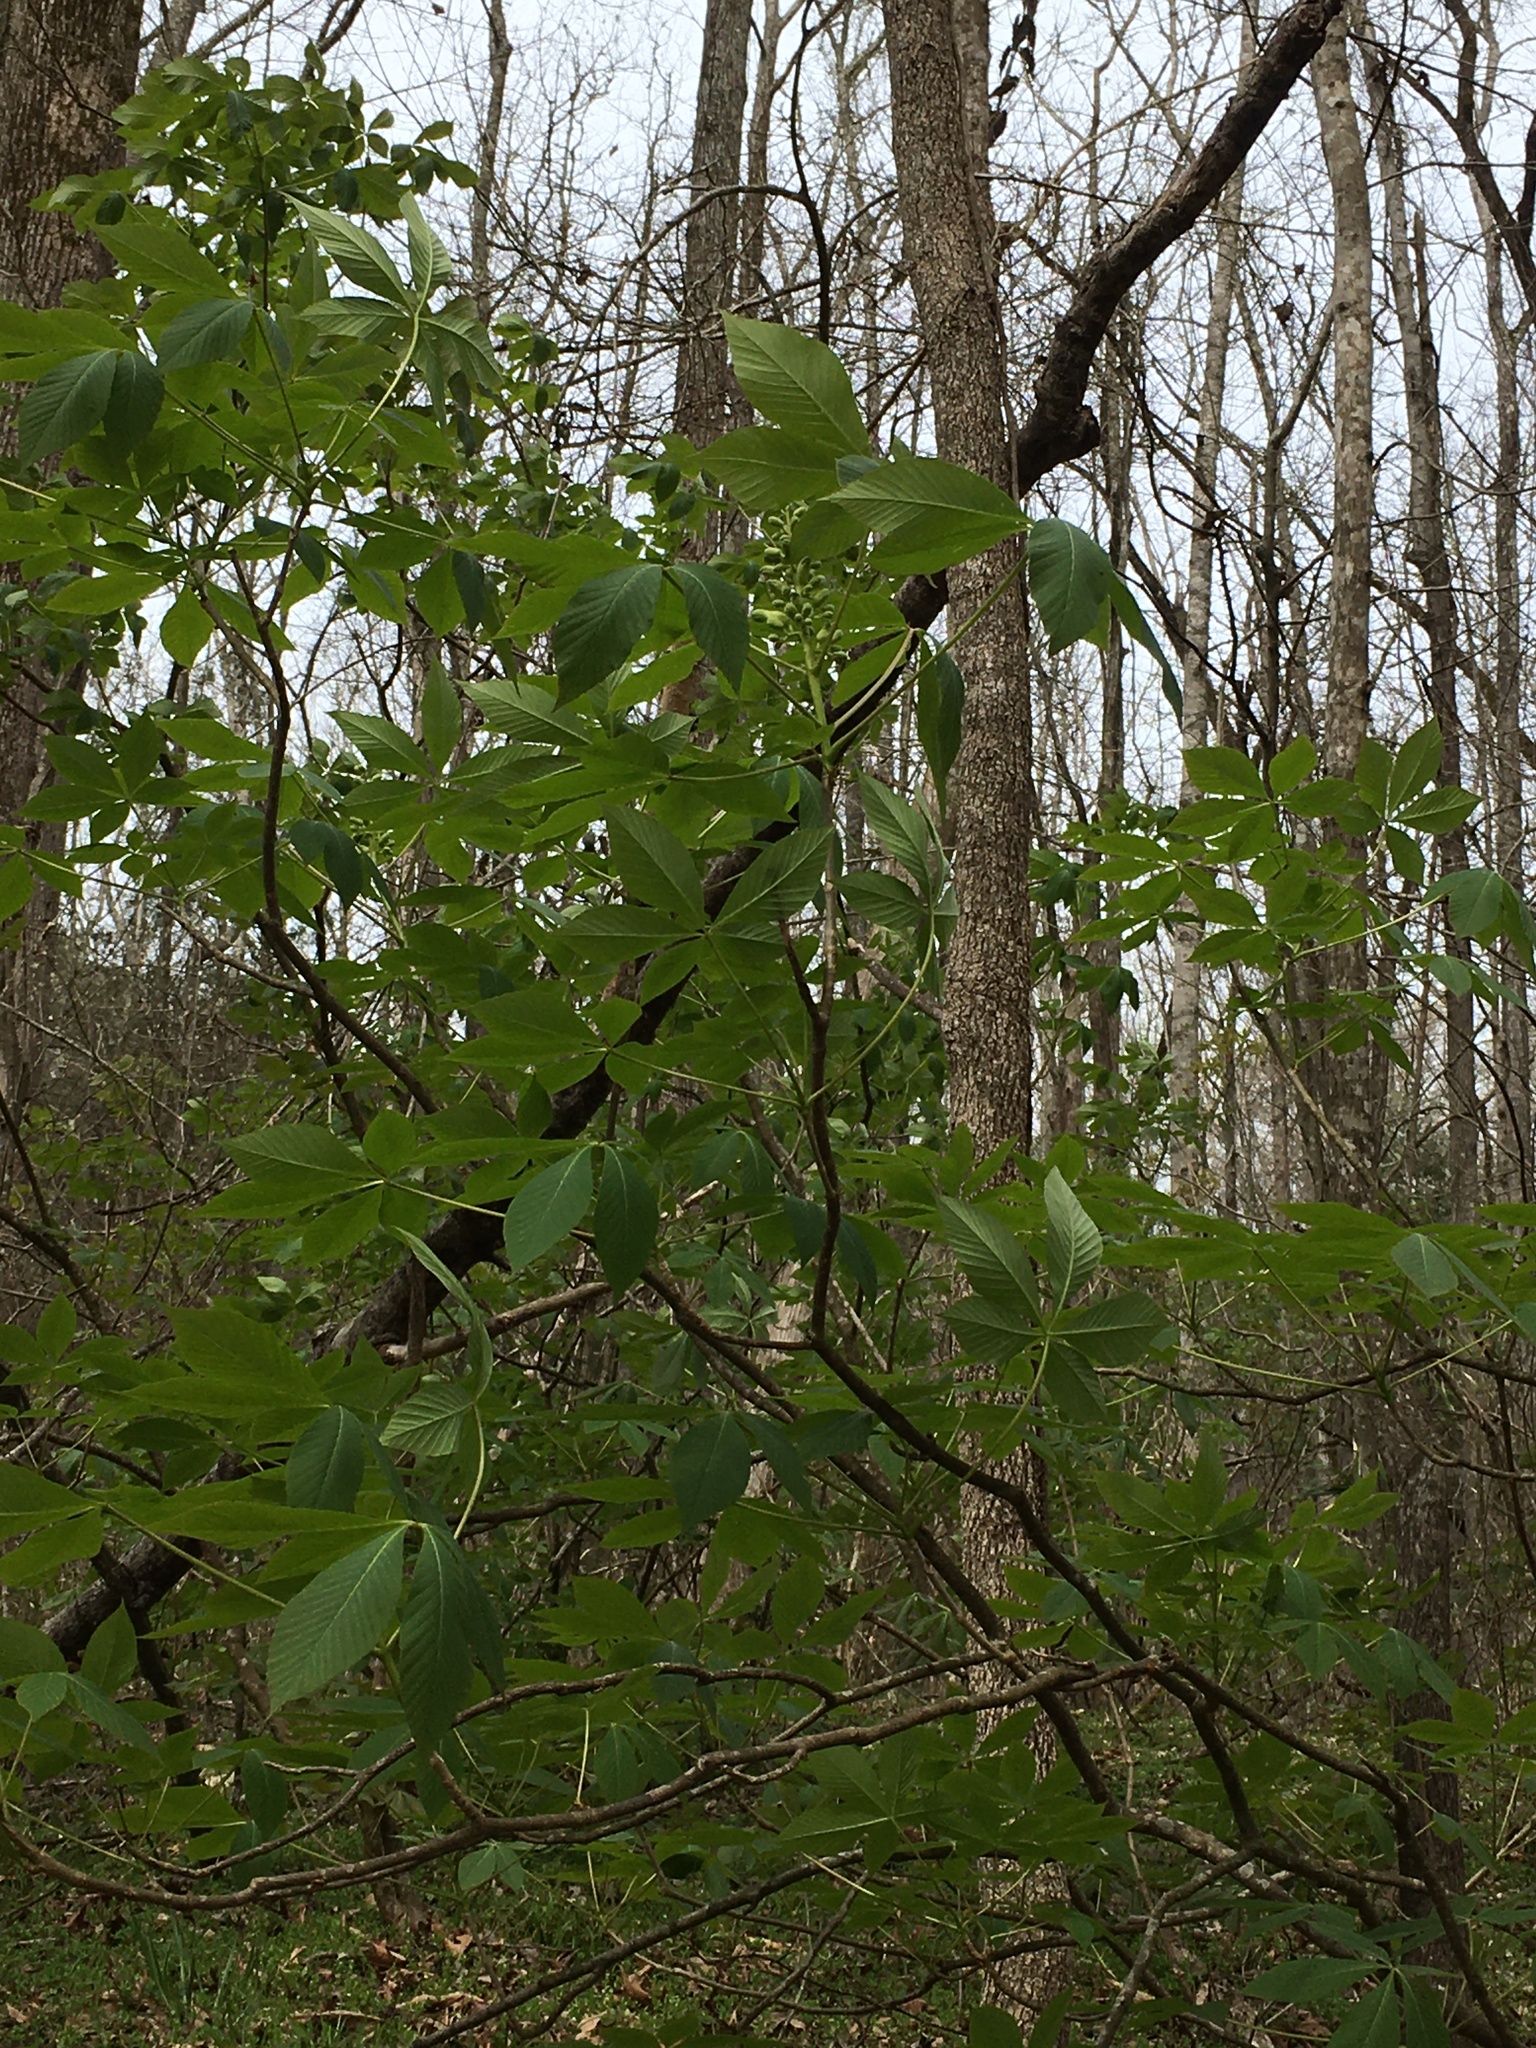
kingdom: Plantae
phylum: Tracheophyta
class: Magnoliopsida
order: Sapindales
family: Sapindaceae
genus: Aesculus
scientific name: Aesculus sylvatica
